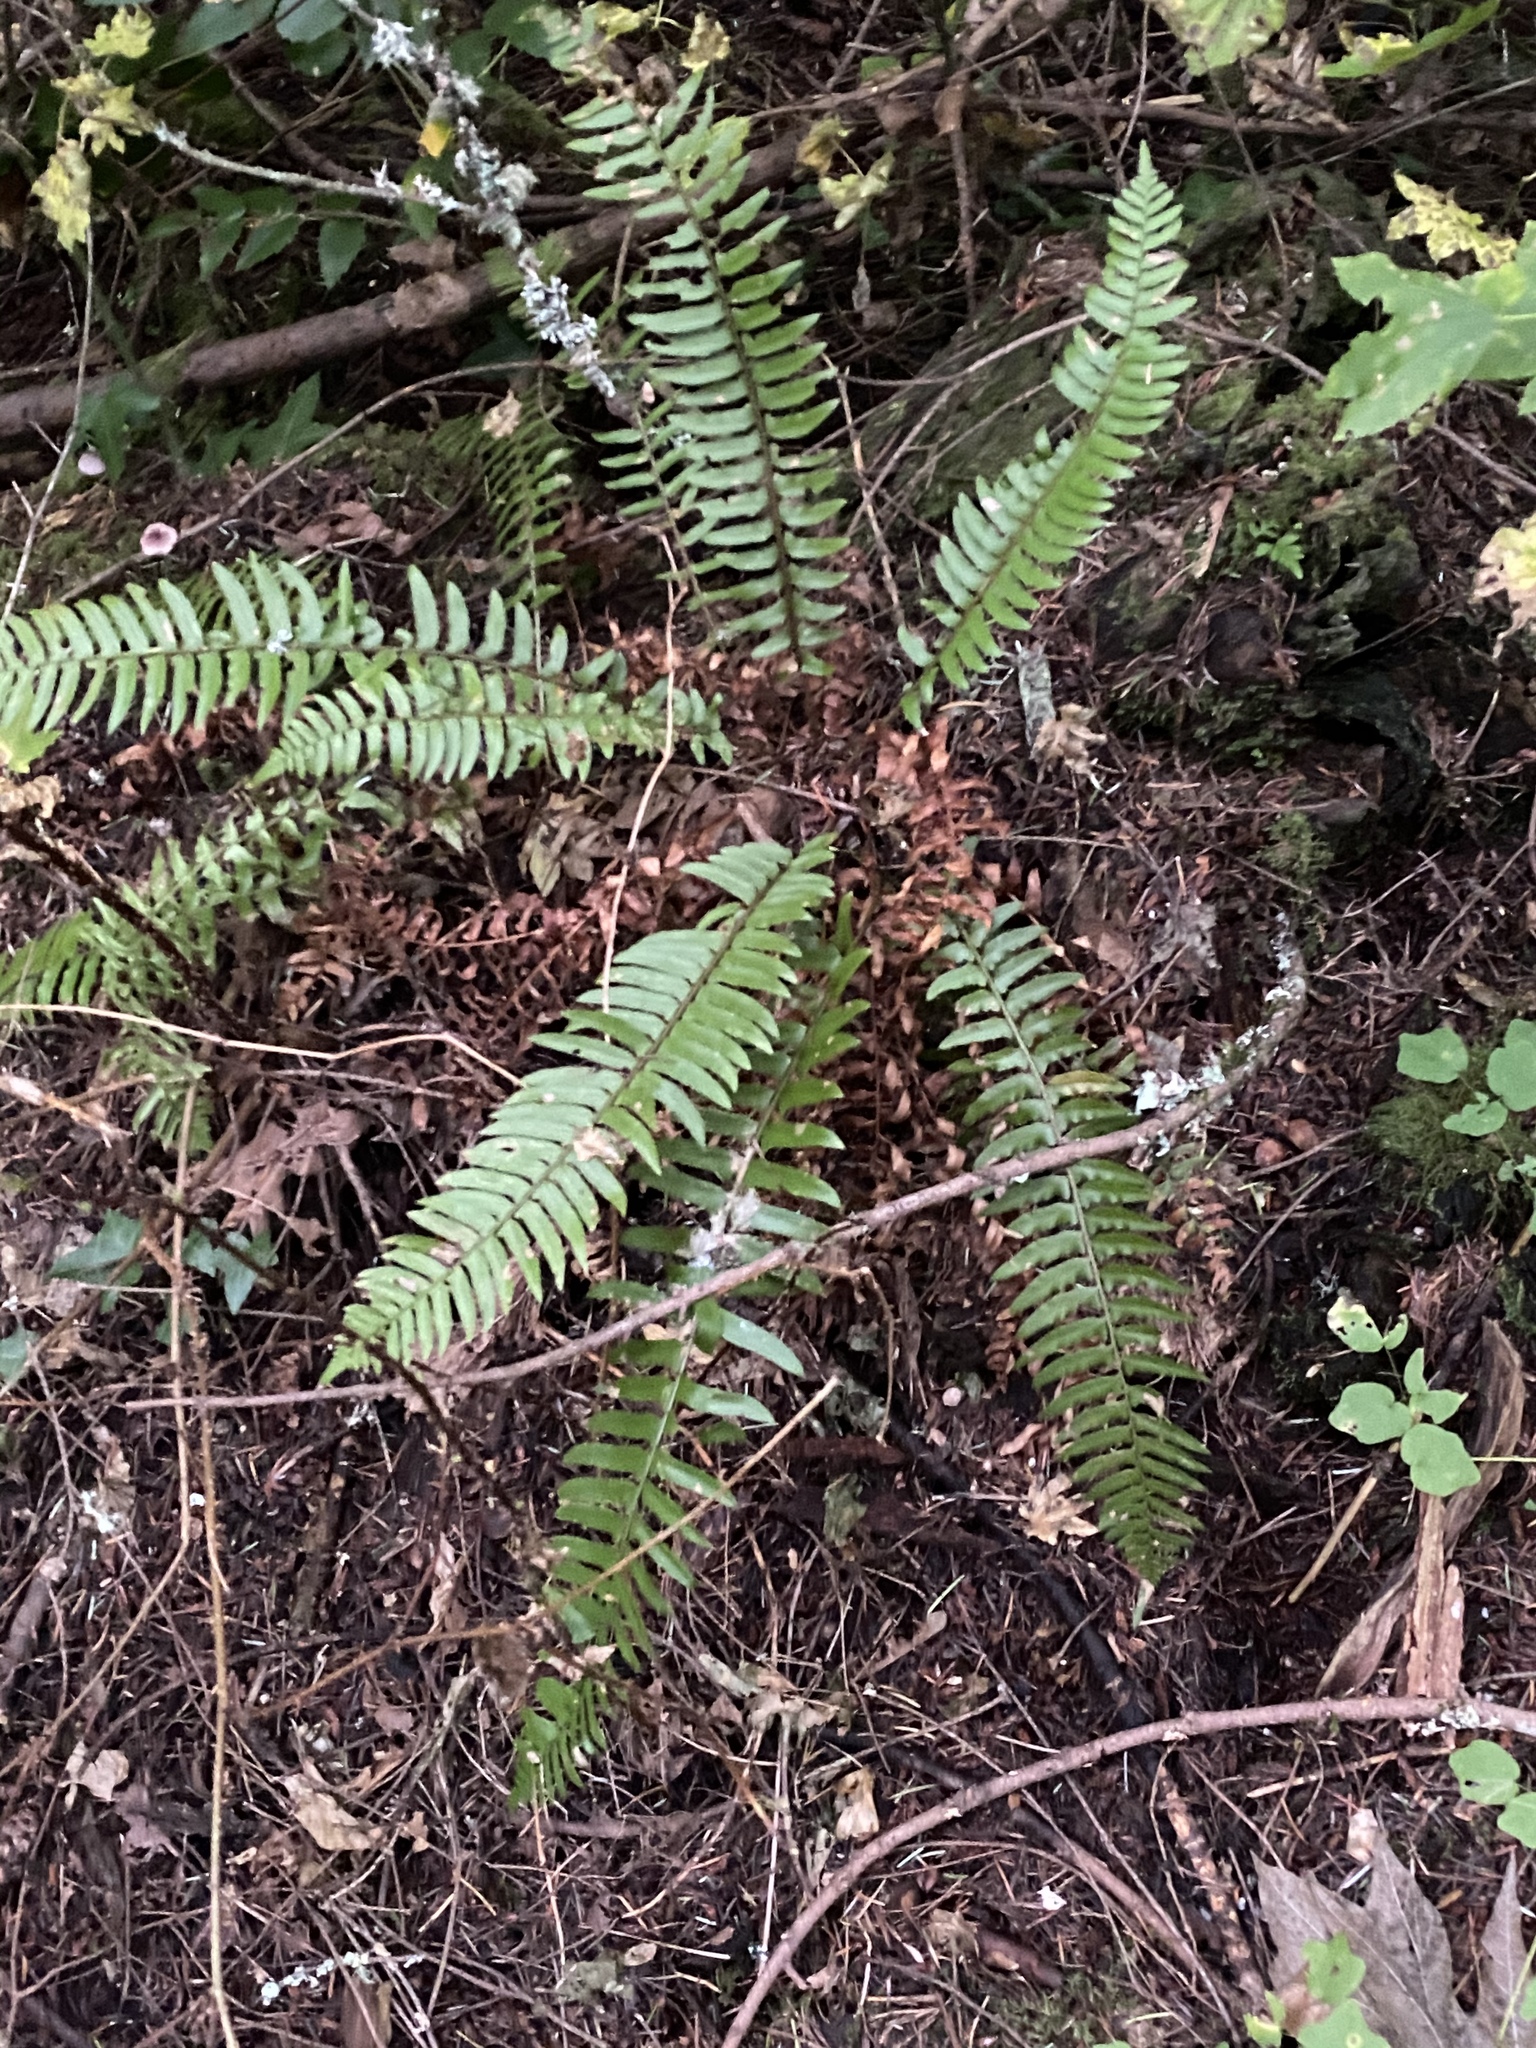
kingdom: Plantae
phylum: Tracheophyta
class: Polypodiopsida
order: Polypodiales
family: Dryopteridaceae
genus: Polystichum
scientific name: Polystichum munitum
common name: Western sword-fern
